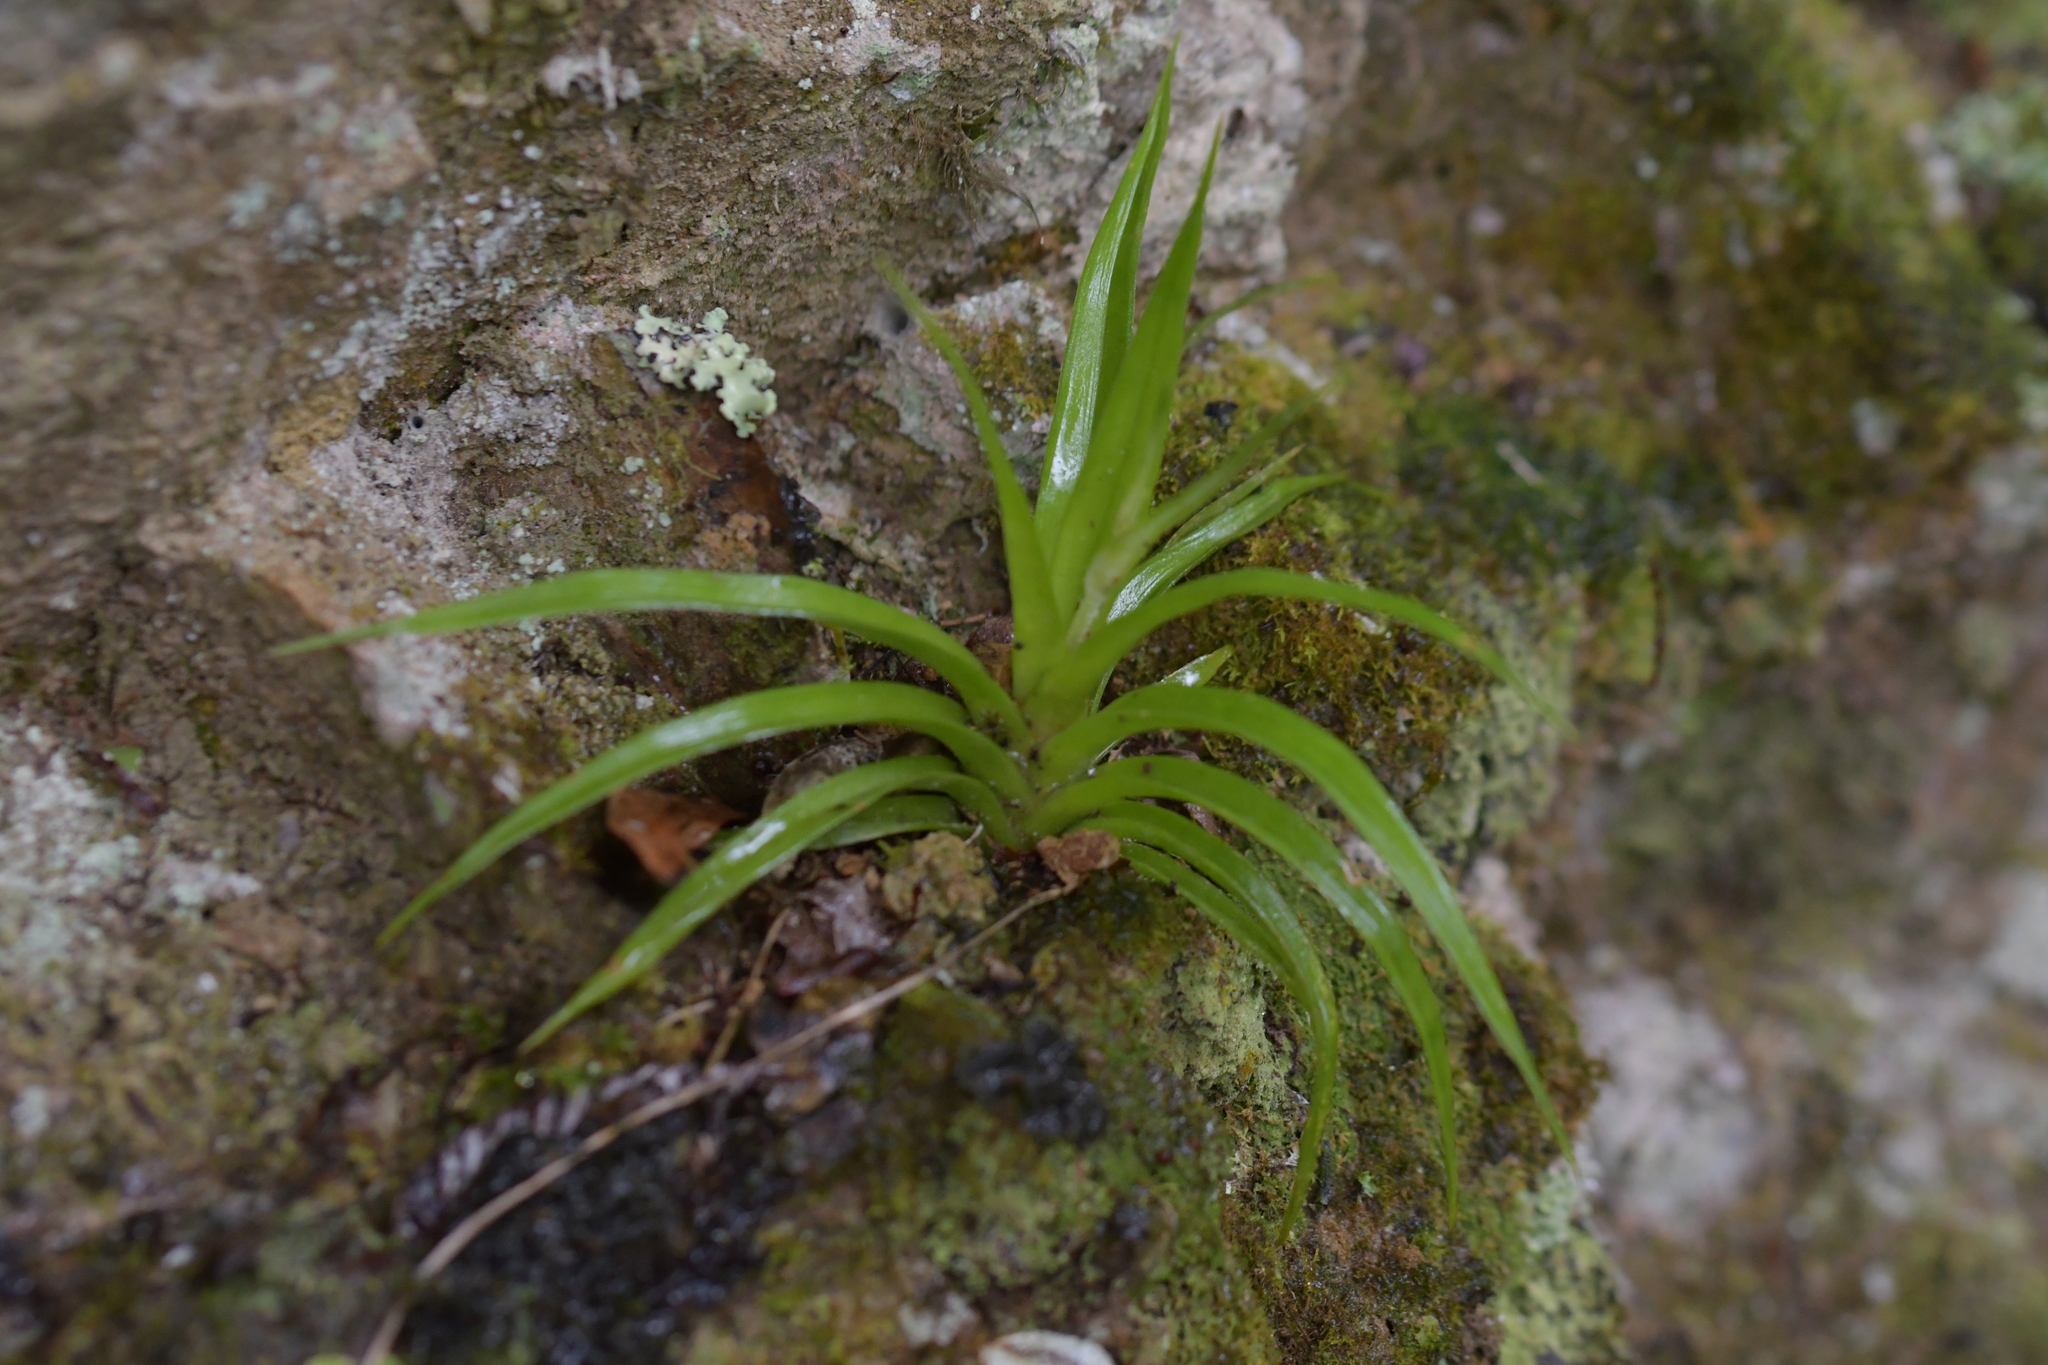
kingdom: Plantae
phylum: Tracheophyta
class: Liliopsida
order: Asparagales
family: Asteliaceae
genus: Astelia
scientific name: Astelia hastata
